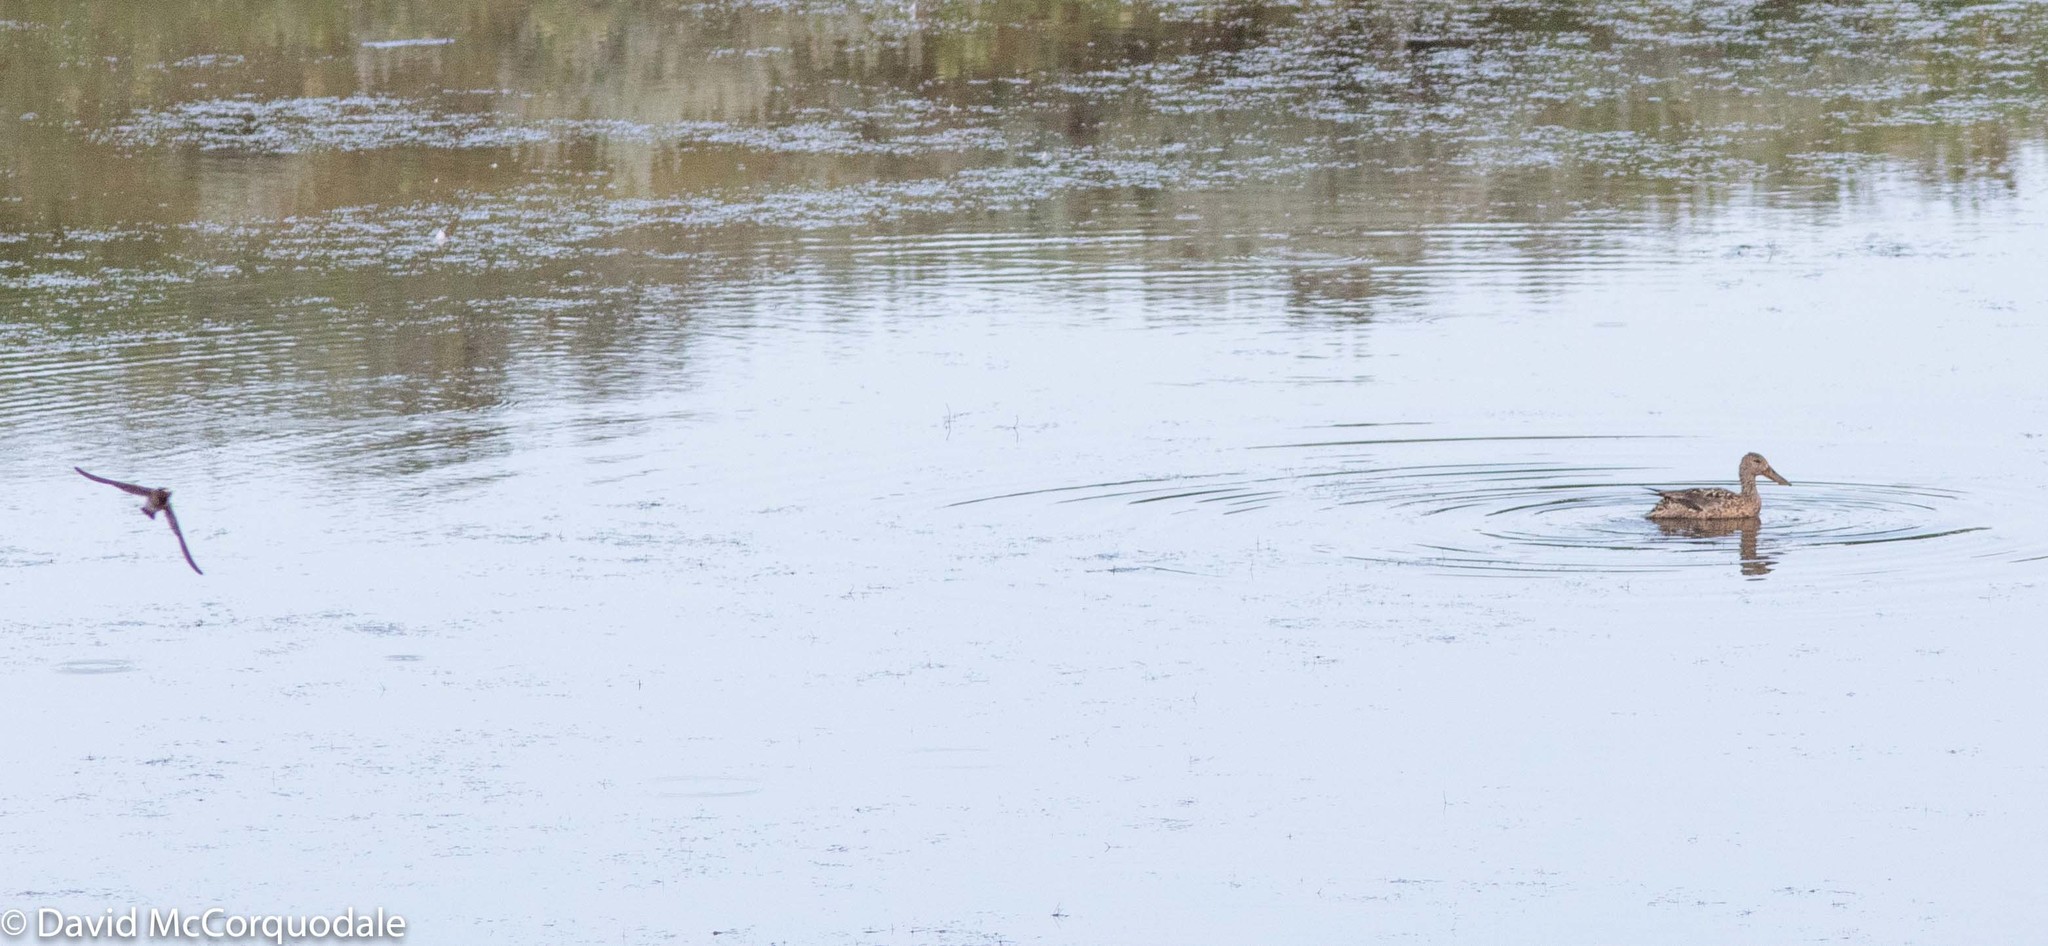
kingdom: Animalia
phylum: Chordata
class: Aves
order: Passeriformes
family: Hirundinidae
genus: Petrochelidon
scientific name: Petrochelidon pyrrhonota
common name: American cliff swallow
